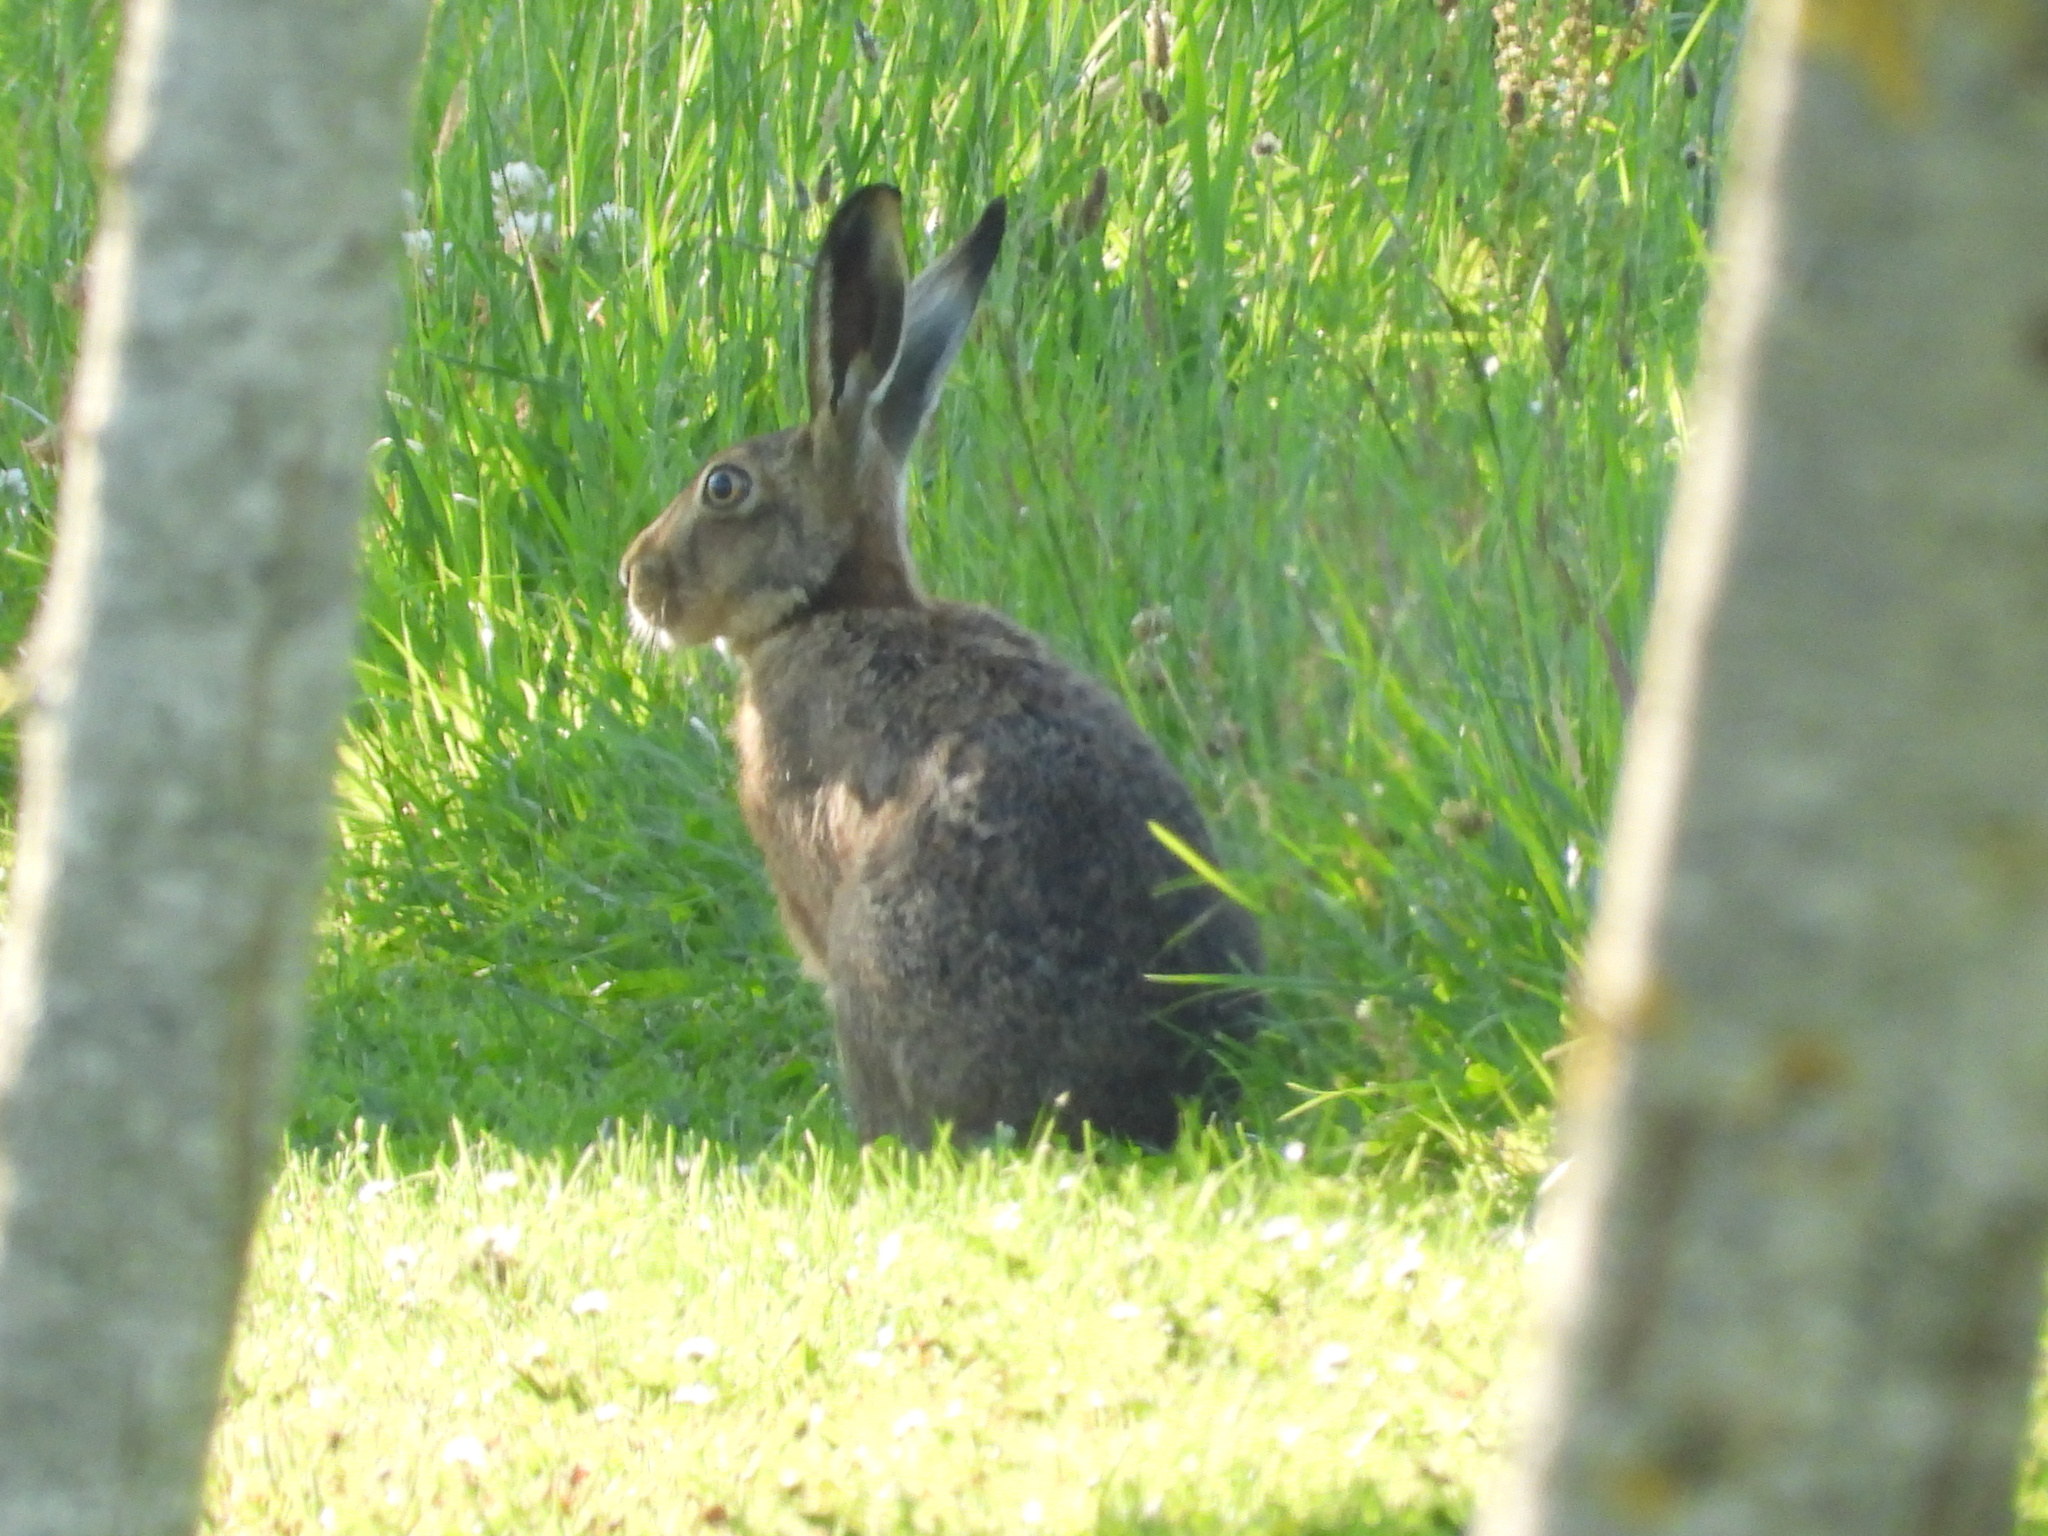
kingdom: Animalia
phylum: Chordata
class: Mammalia
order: Lagomorpha
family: Leporidae
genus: Lepus
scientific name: Lepus europaeus
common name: European hare
